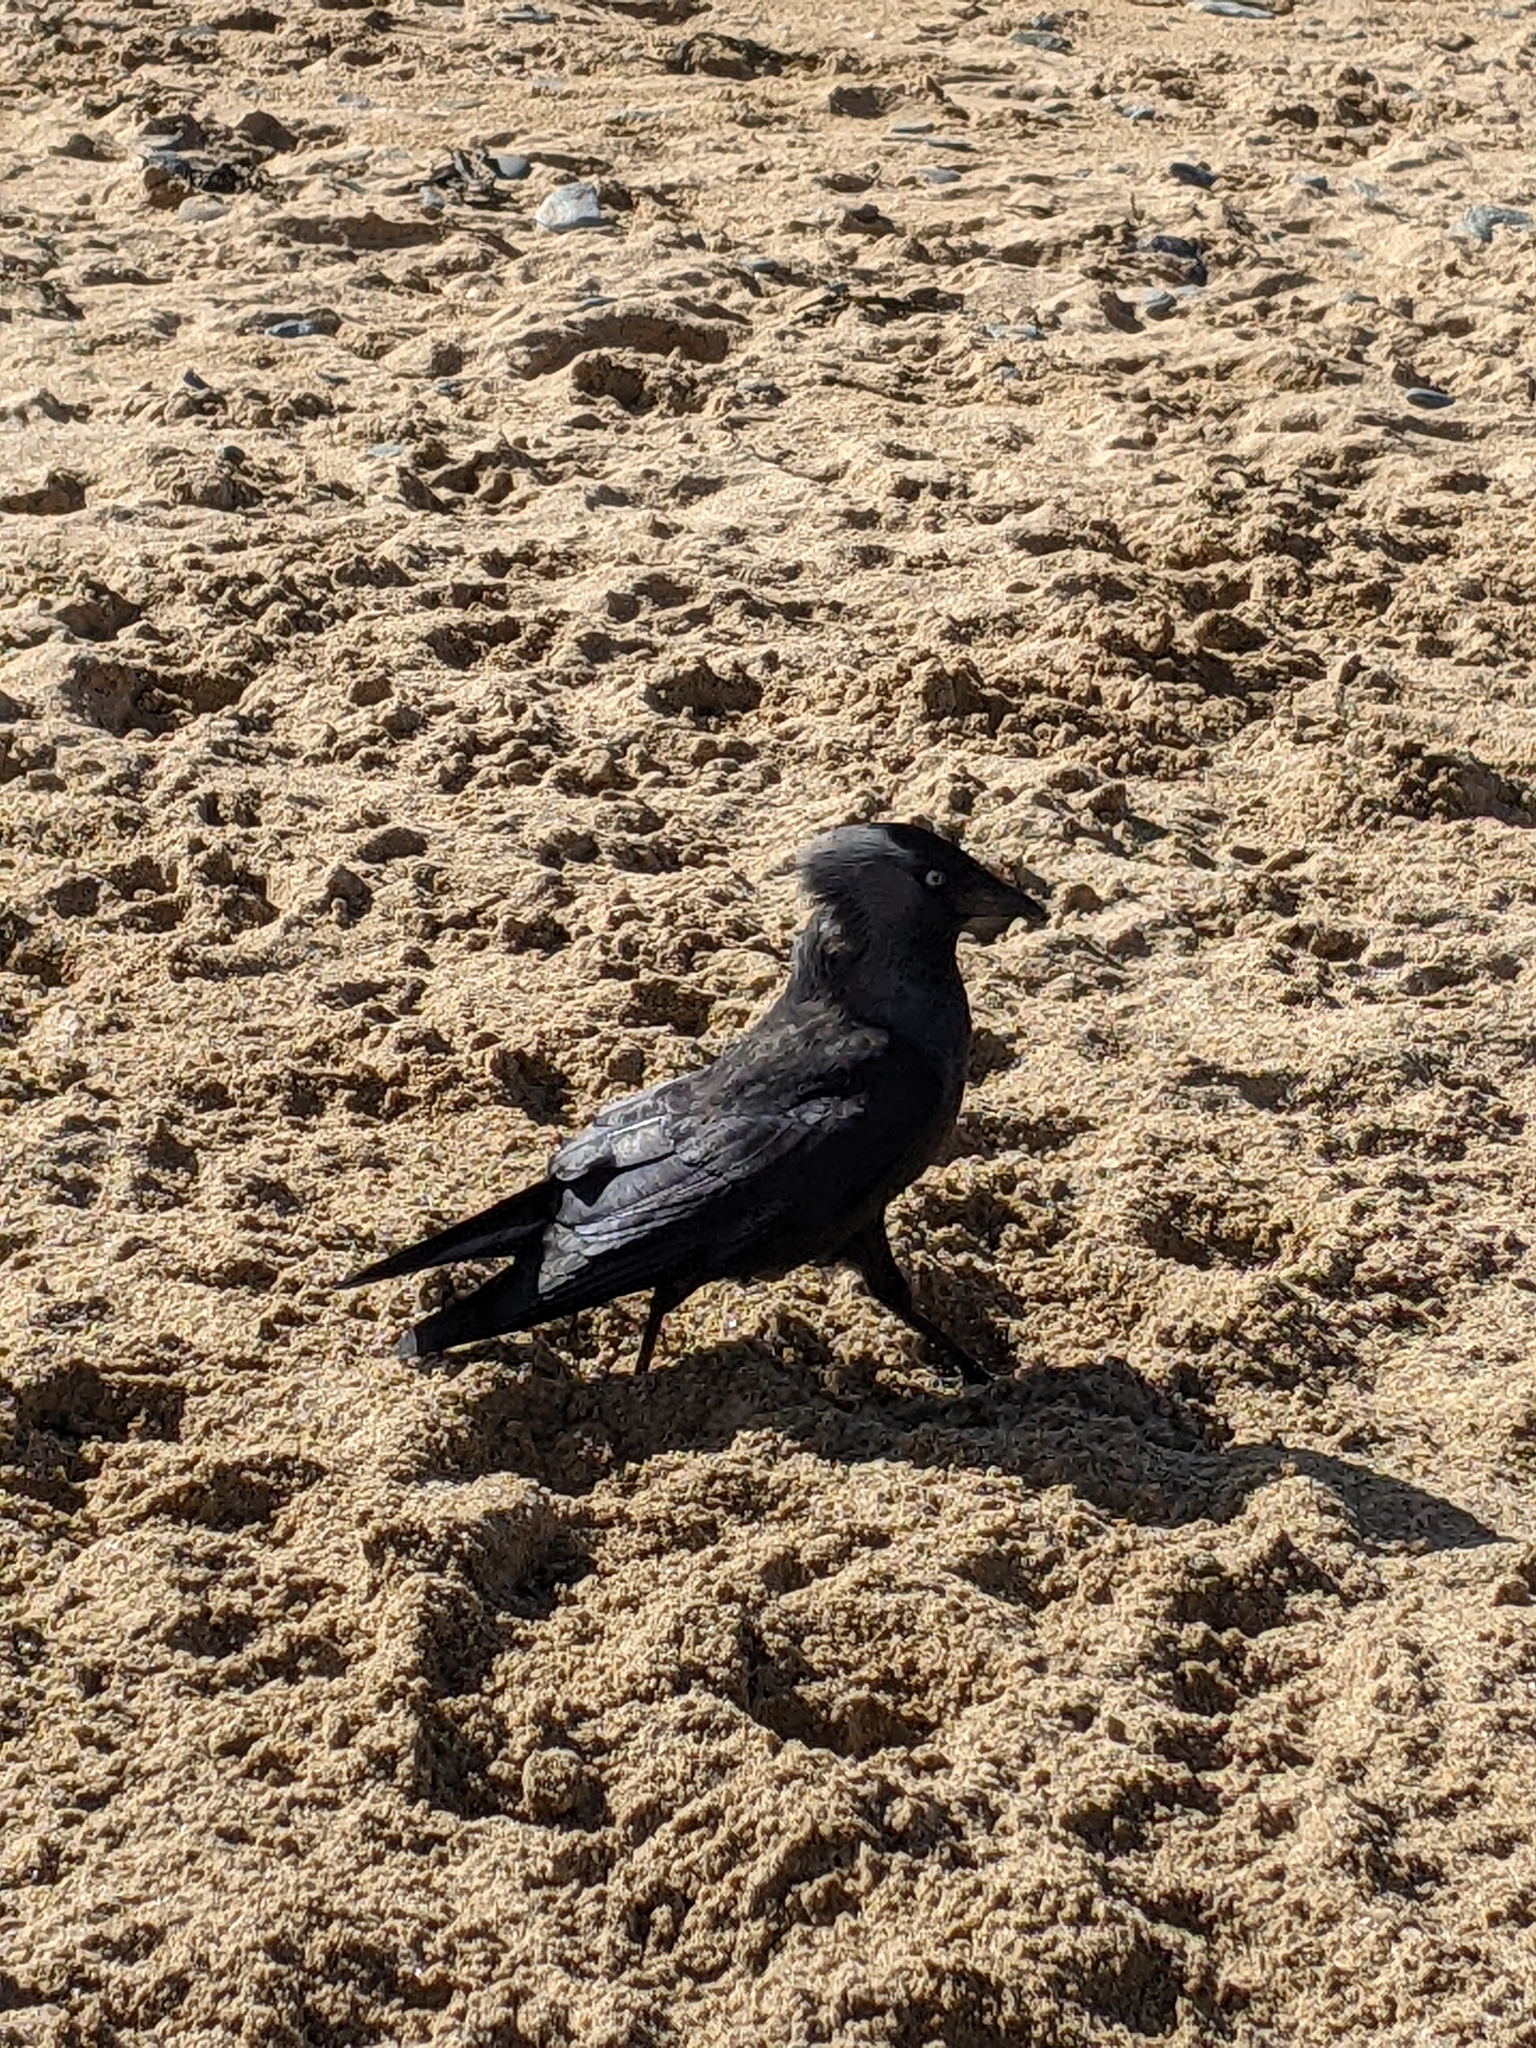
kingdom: Animalia
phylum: Chordata
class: Aves
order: Passeriformes
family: Corvidae
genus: Coloeus
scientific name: Coloeus monedula
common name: Western jackdaw
